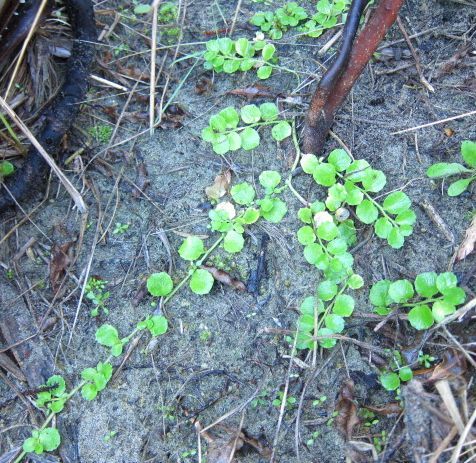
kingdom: Plantae
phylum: Tracheophyta
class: Magnoliopsida
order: Asterales
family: Campanulaceae
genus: Lobelia
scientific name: Lobelia arenaria
